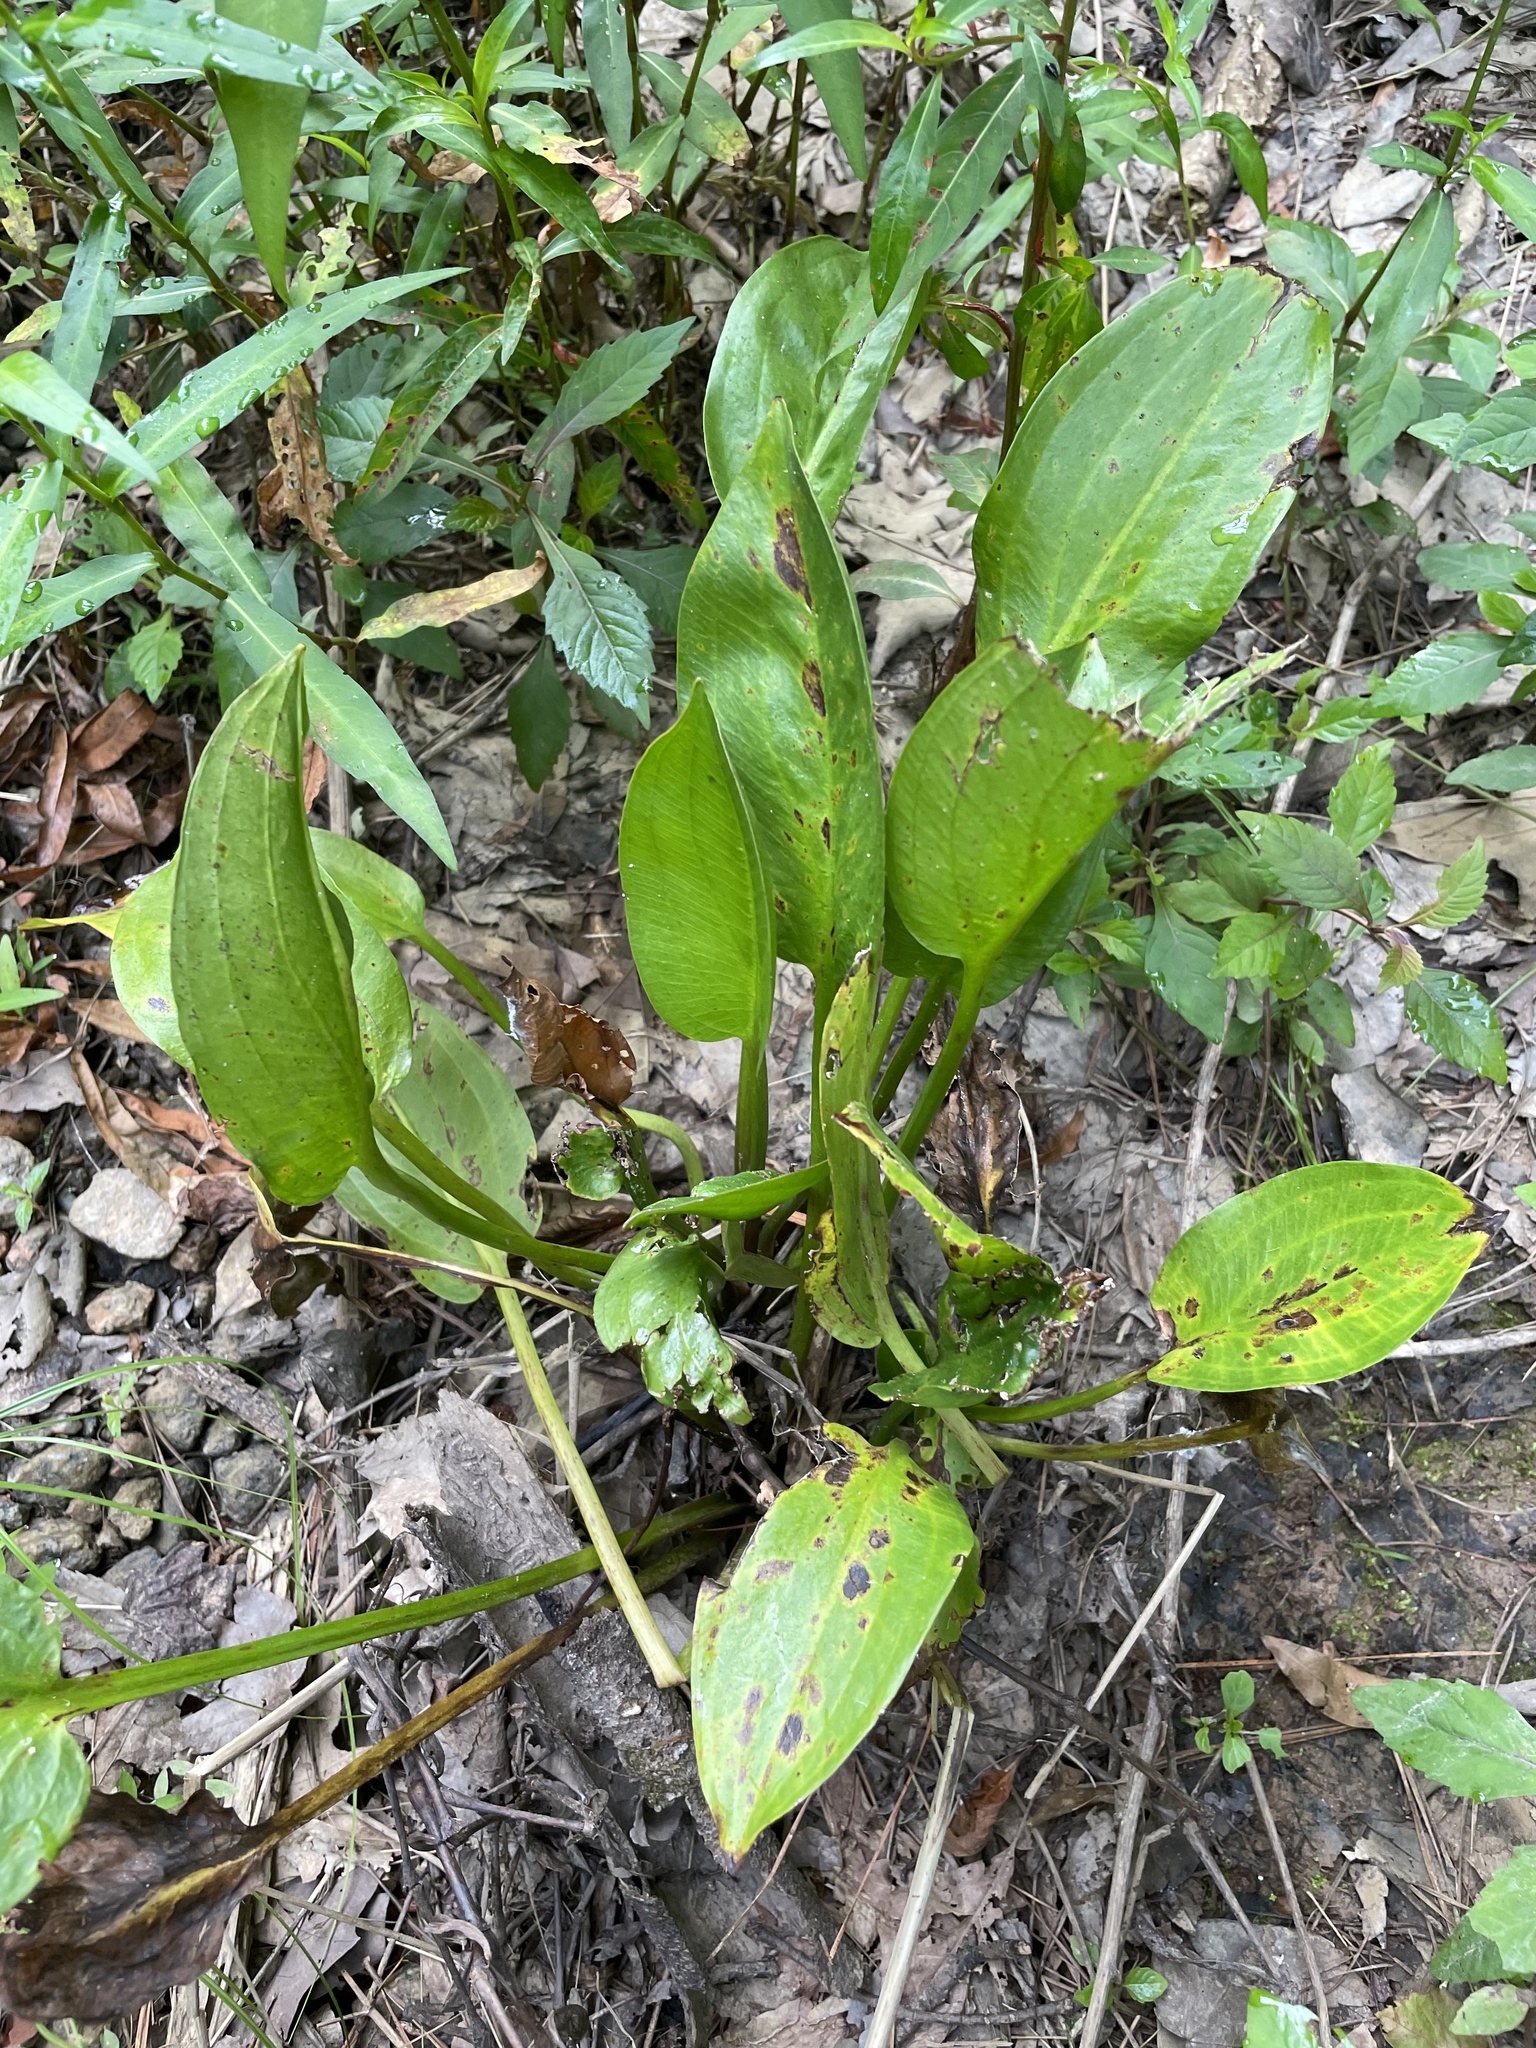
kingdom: Plantae
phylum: Tracheophyta
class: Liliopsida
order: Alismatales
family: Alismataceae
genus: Alisma
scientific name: Alisma subcordatum
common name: Southern water-plantain
